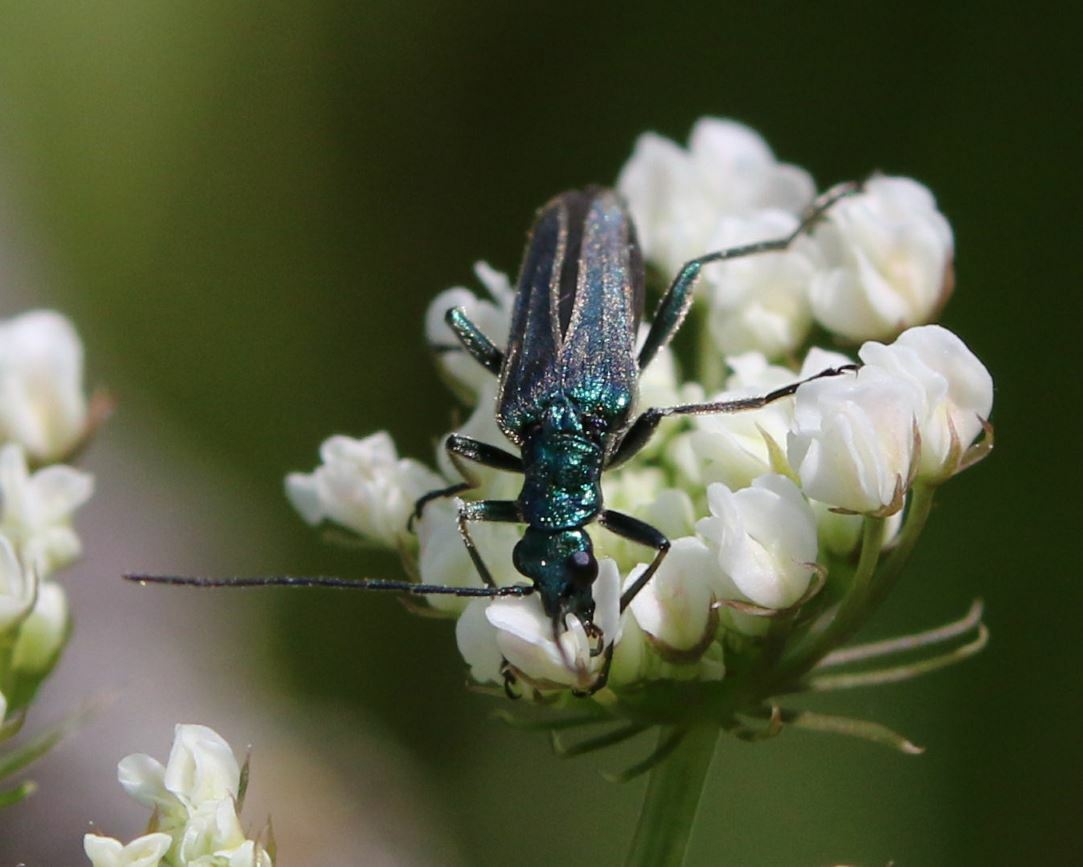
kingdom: Animalia
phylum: Arthropoda
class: Insecta
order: Coleoptera
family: Oedemeridae
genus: Oedemera
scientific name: Oedemera nobilis
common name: Swollen-thighed beetle
